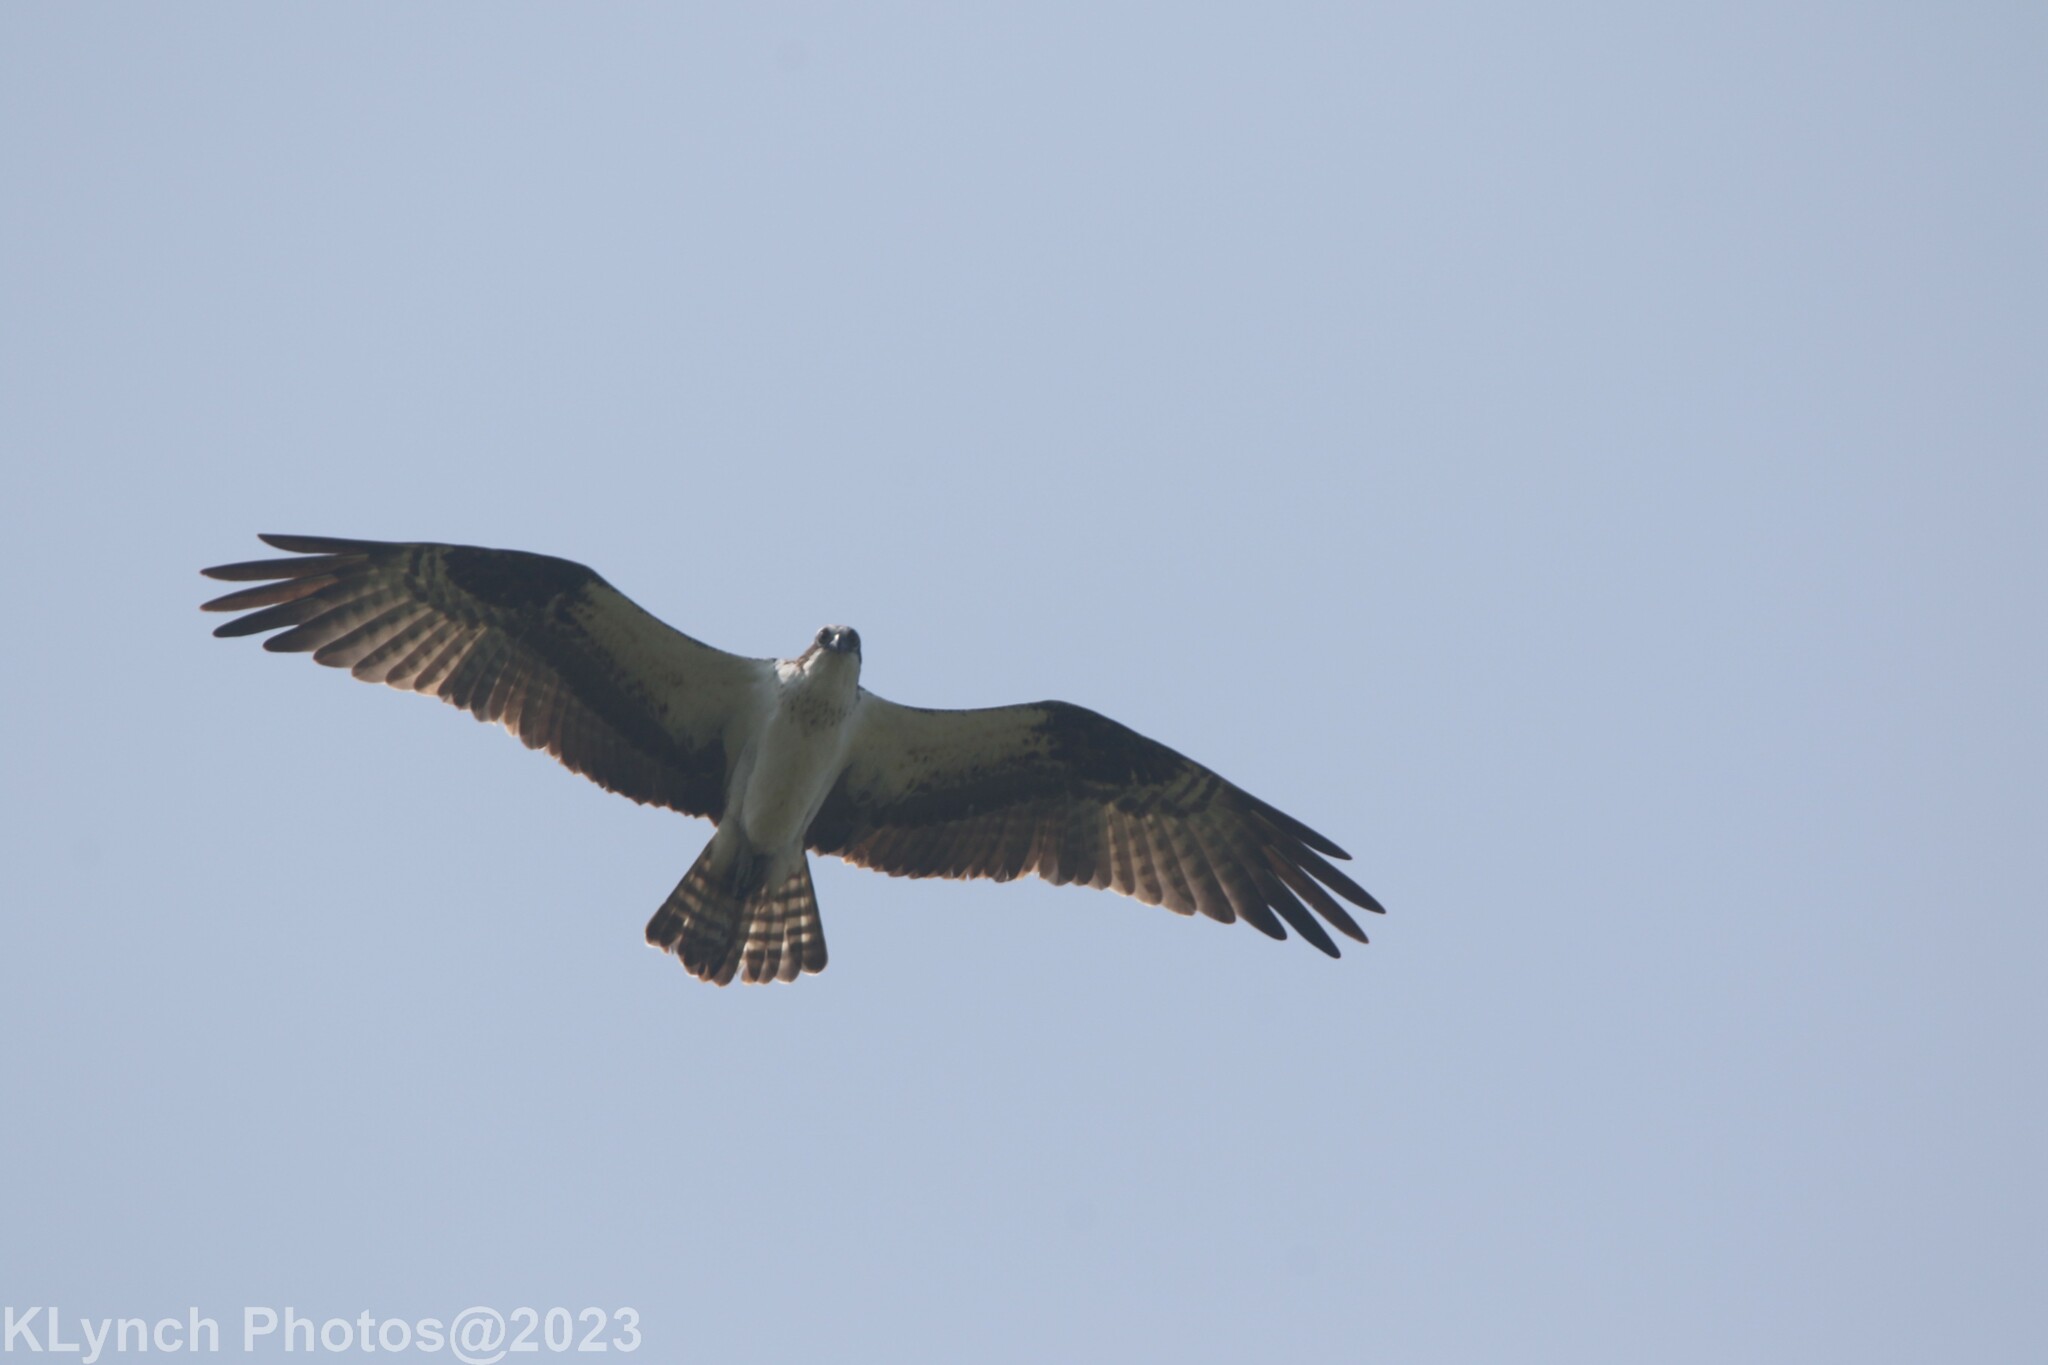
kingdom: Animalia
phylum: Chordata
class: Aves
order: Accipitriformes
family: Pandionidae
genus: Pandion
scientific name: Pandion haliaetus
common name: Osprey
